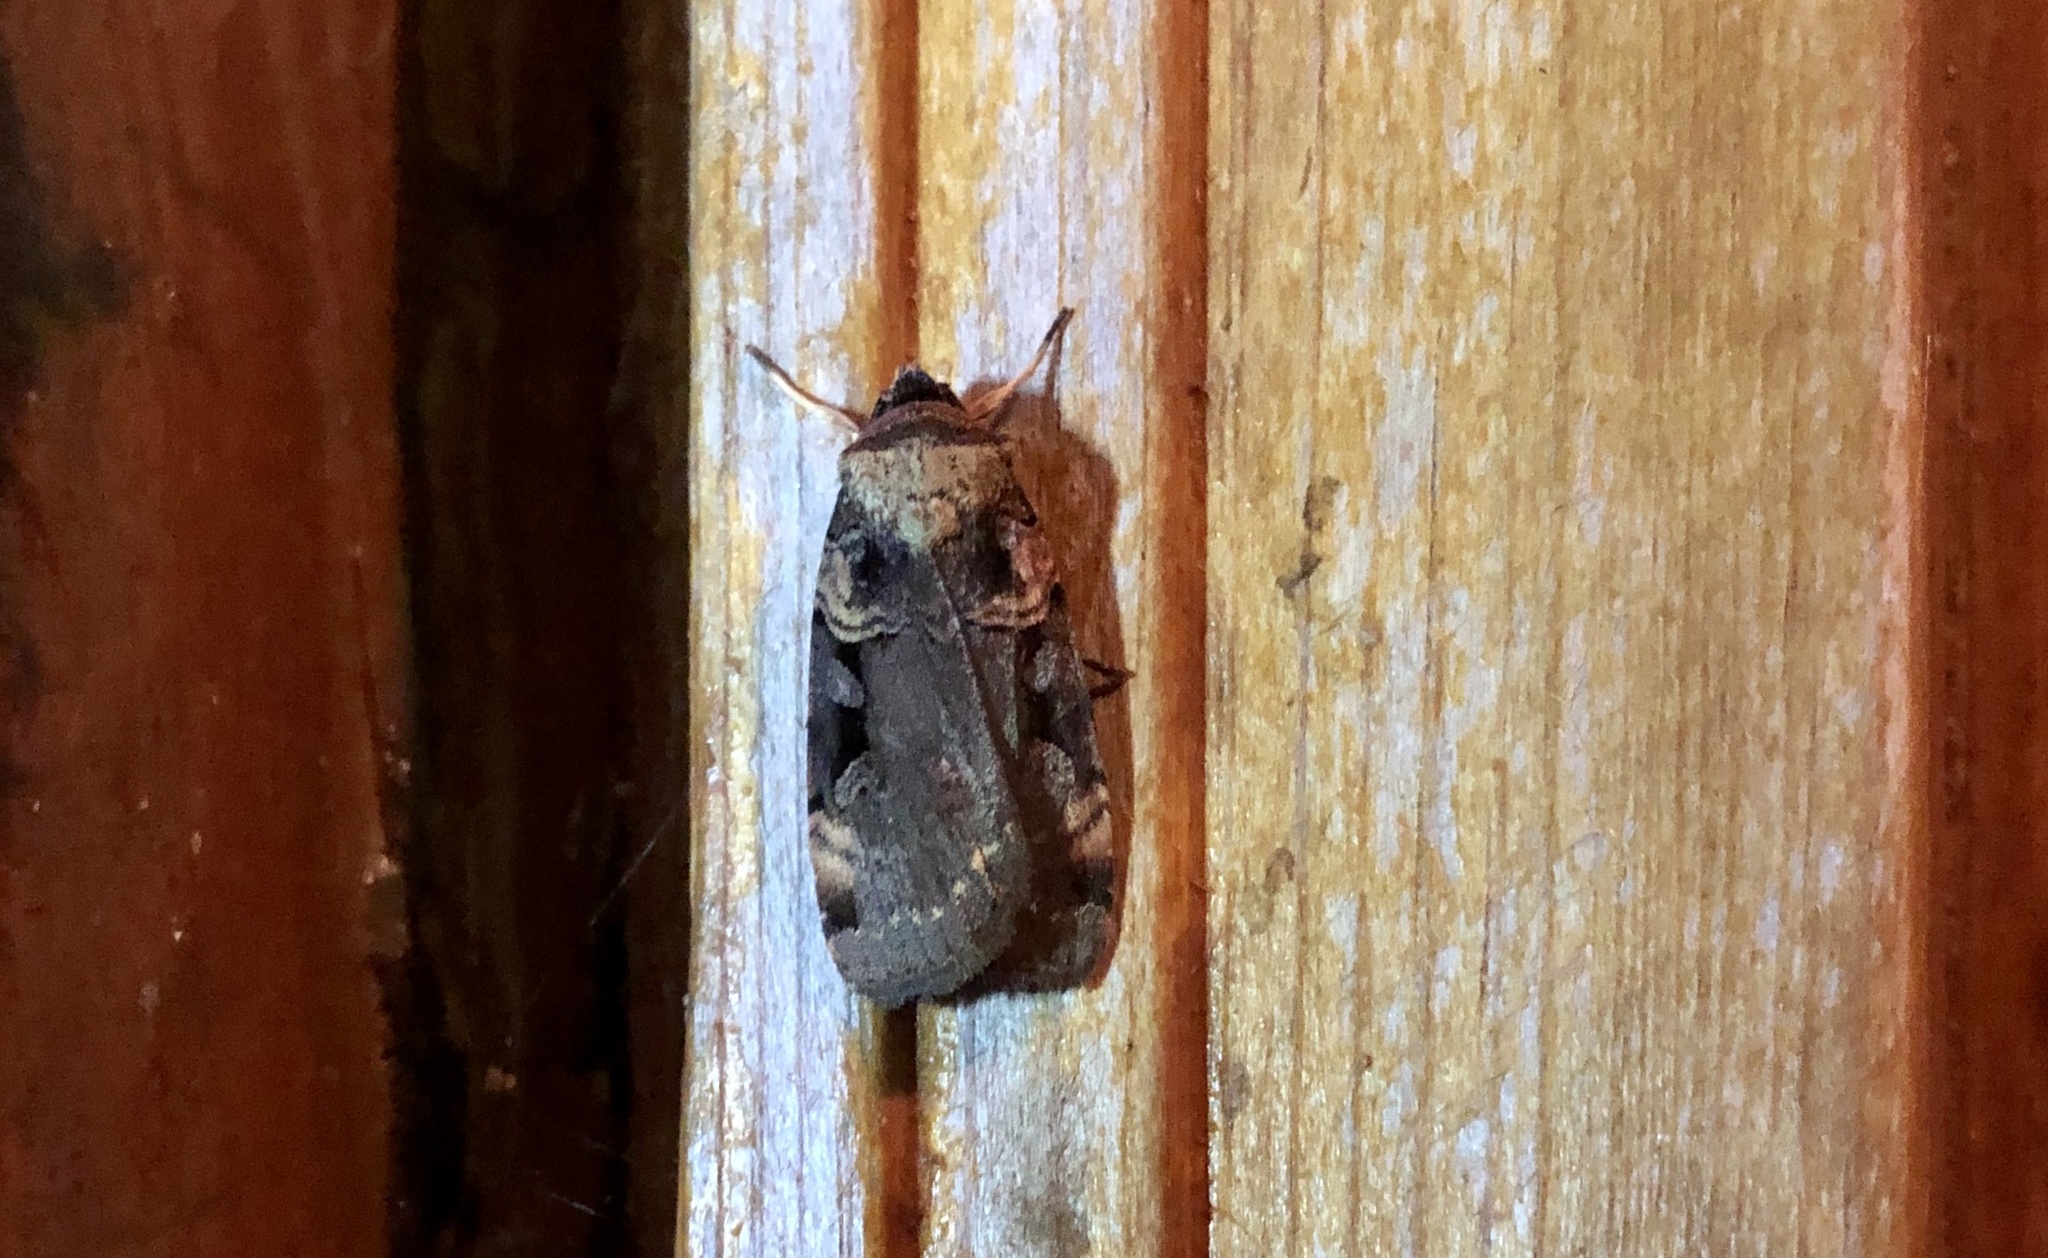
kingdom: Animalia
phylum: Arthropoda
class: Insecta
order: Lepidoptera
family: Noctuidae
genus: Pseudohermonassa
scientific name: Pseudohermonassa bicarnea
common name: Pink spotted dart
